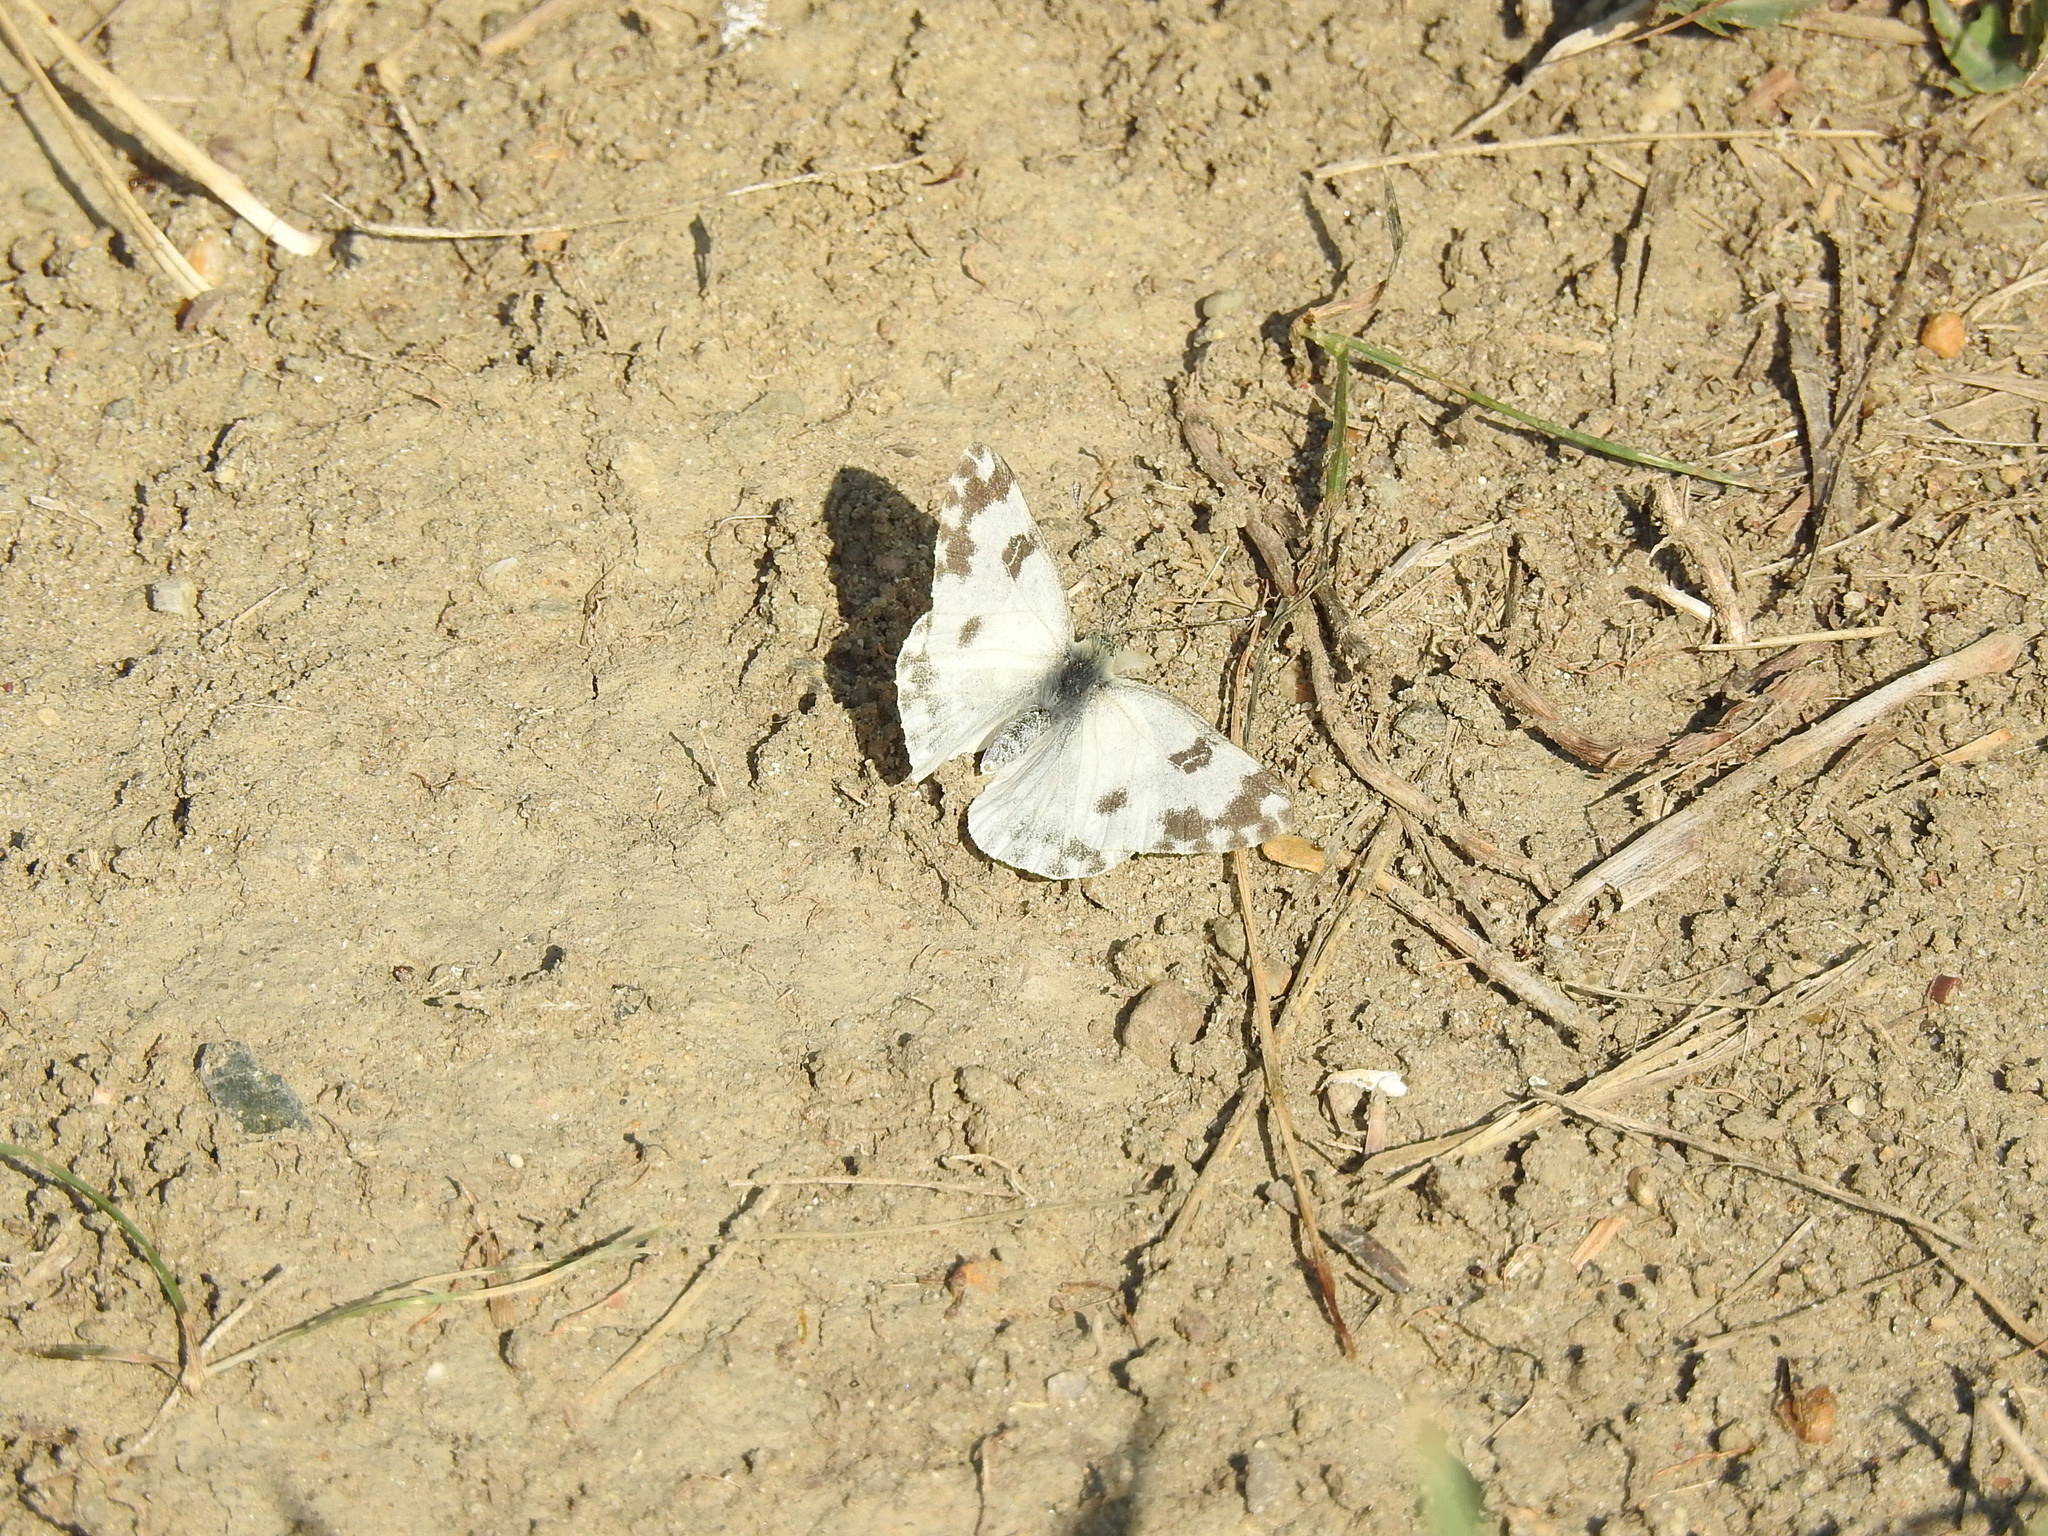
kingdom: Animalia
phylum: Arthropoda
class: Insecta
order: Lepidoptera
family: Pieridae
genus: Pontia
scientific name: Pontia edusa
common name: Eastern bath white
